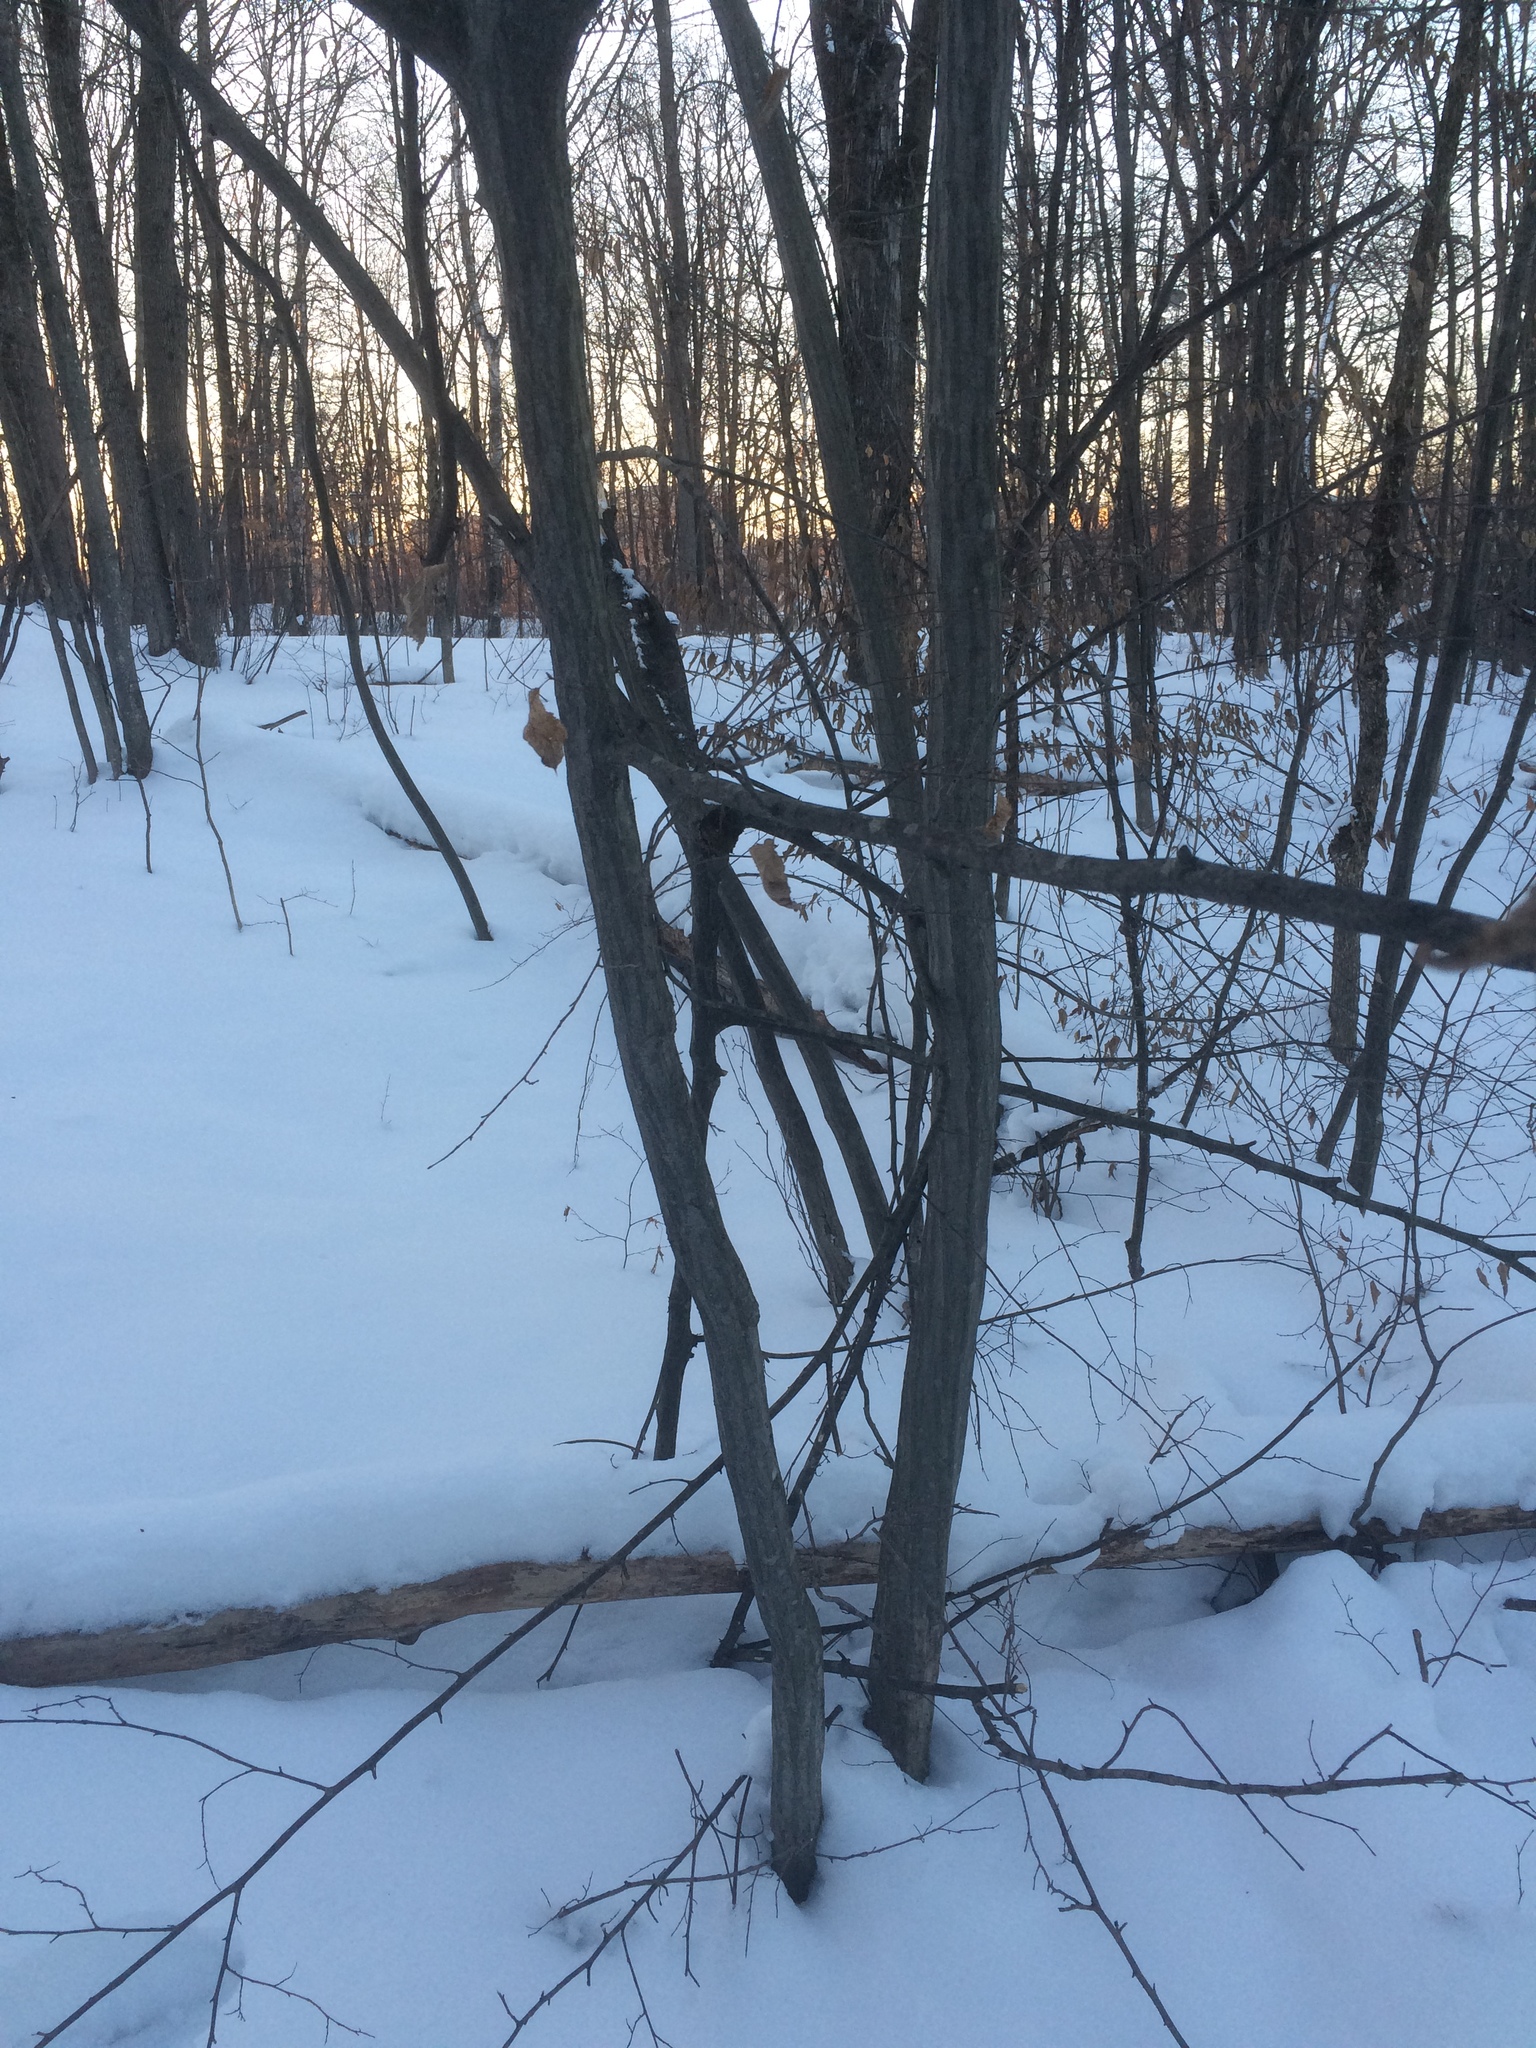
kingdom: Plantae
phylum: Tracheophyta
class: Magnoliopsida
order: Fagales
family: Betulaceae
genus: Carpinus
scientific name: Carpinus caroliniana
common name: American hornbeam
